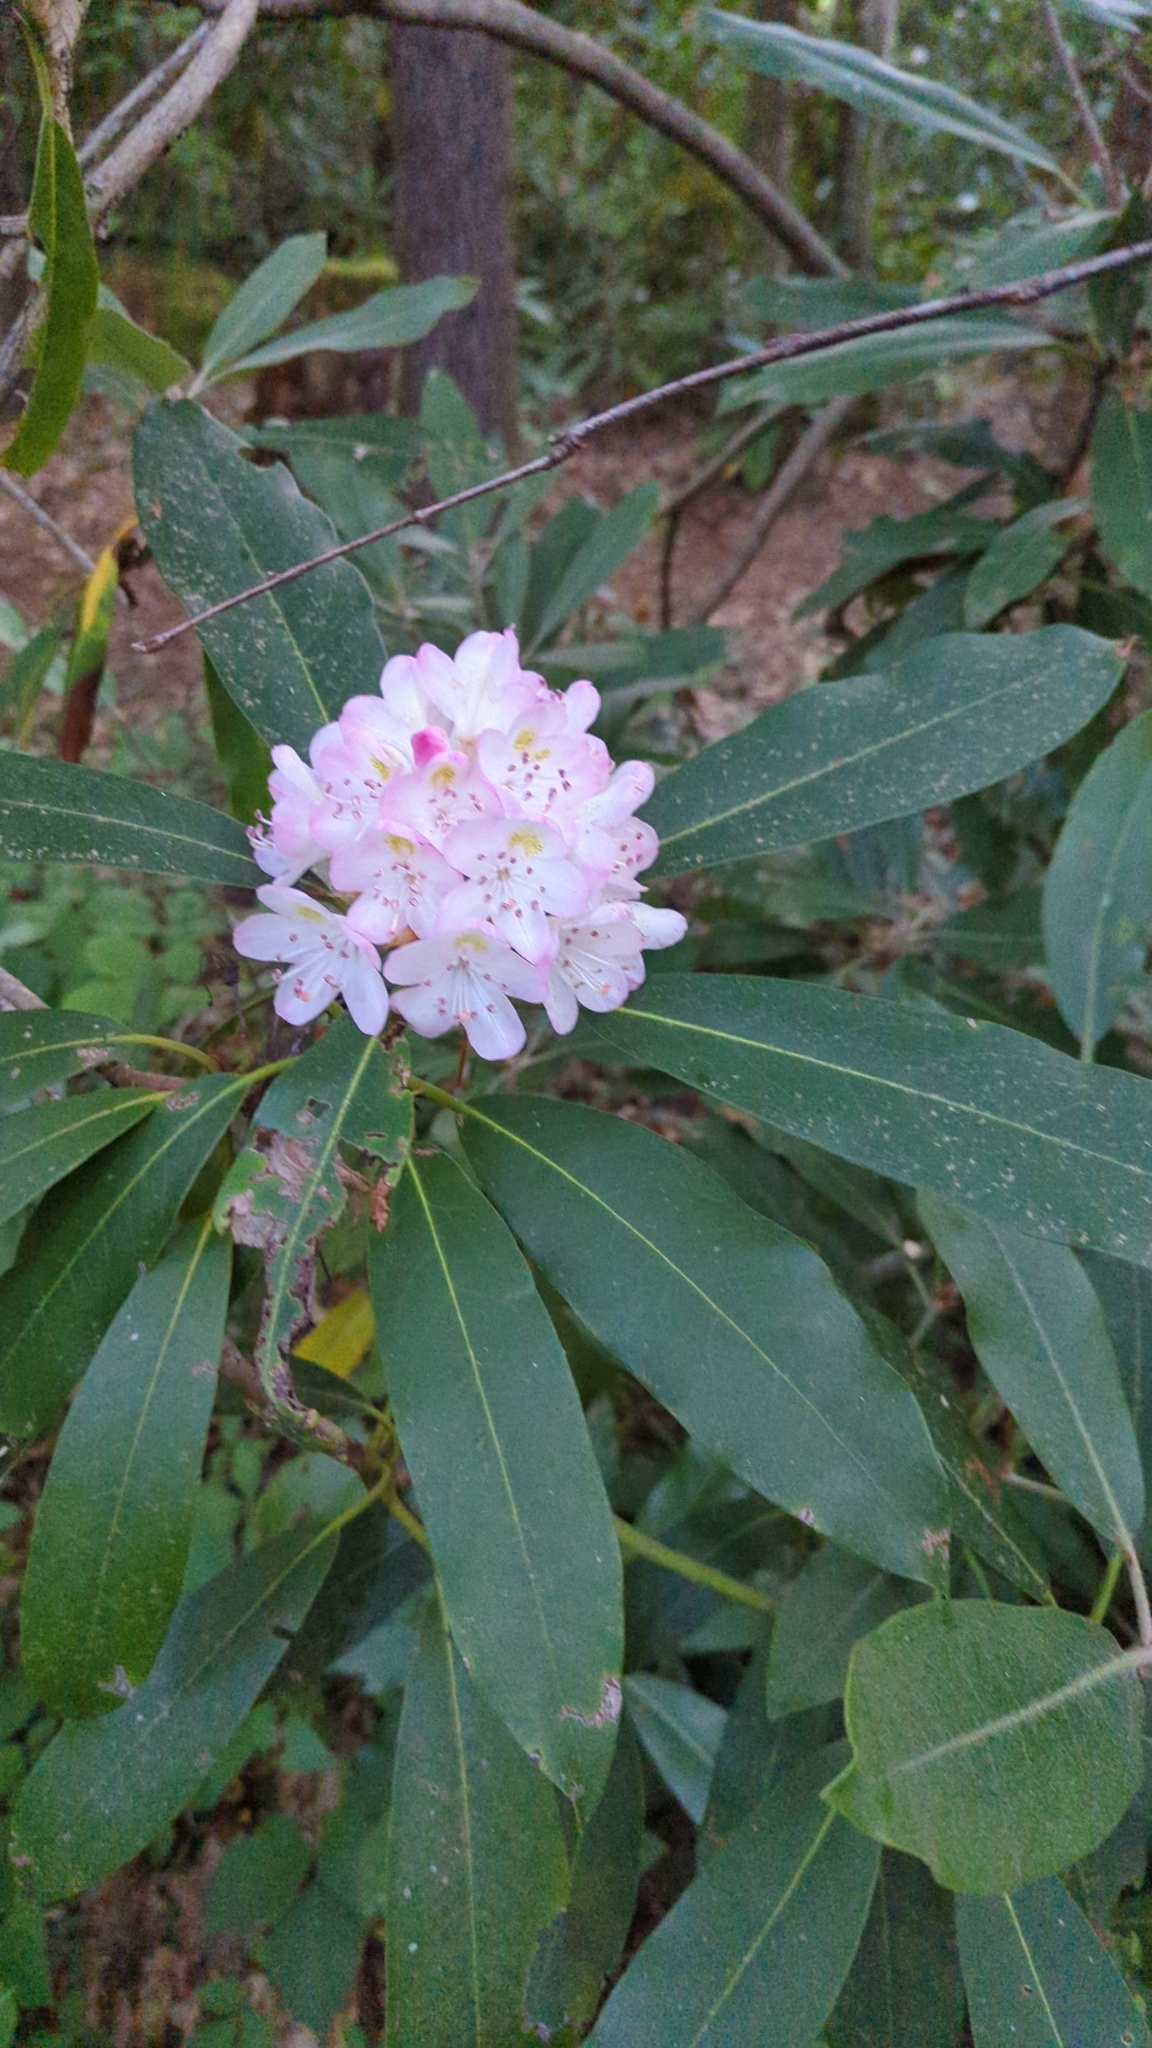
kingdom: Plantae
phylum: Tracheophyta
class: Magnoliopsida
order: Ericales
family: Ericaceae
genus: Rhododendron
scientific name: Rhododendron maximum
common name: Great rhododendron
